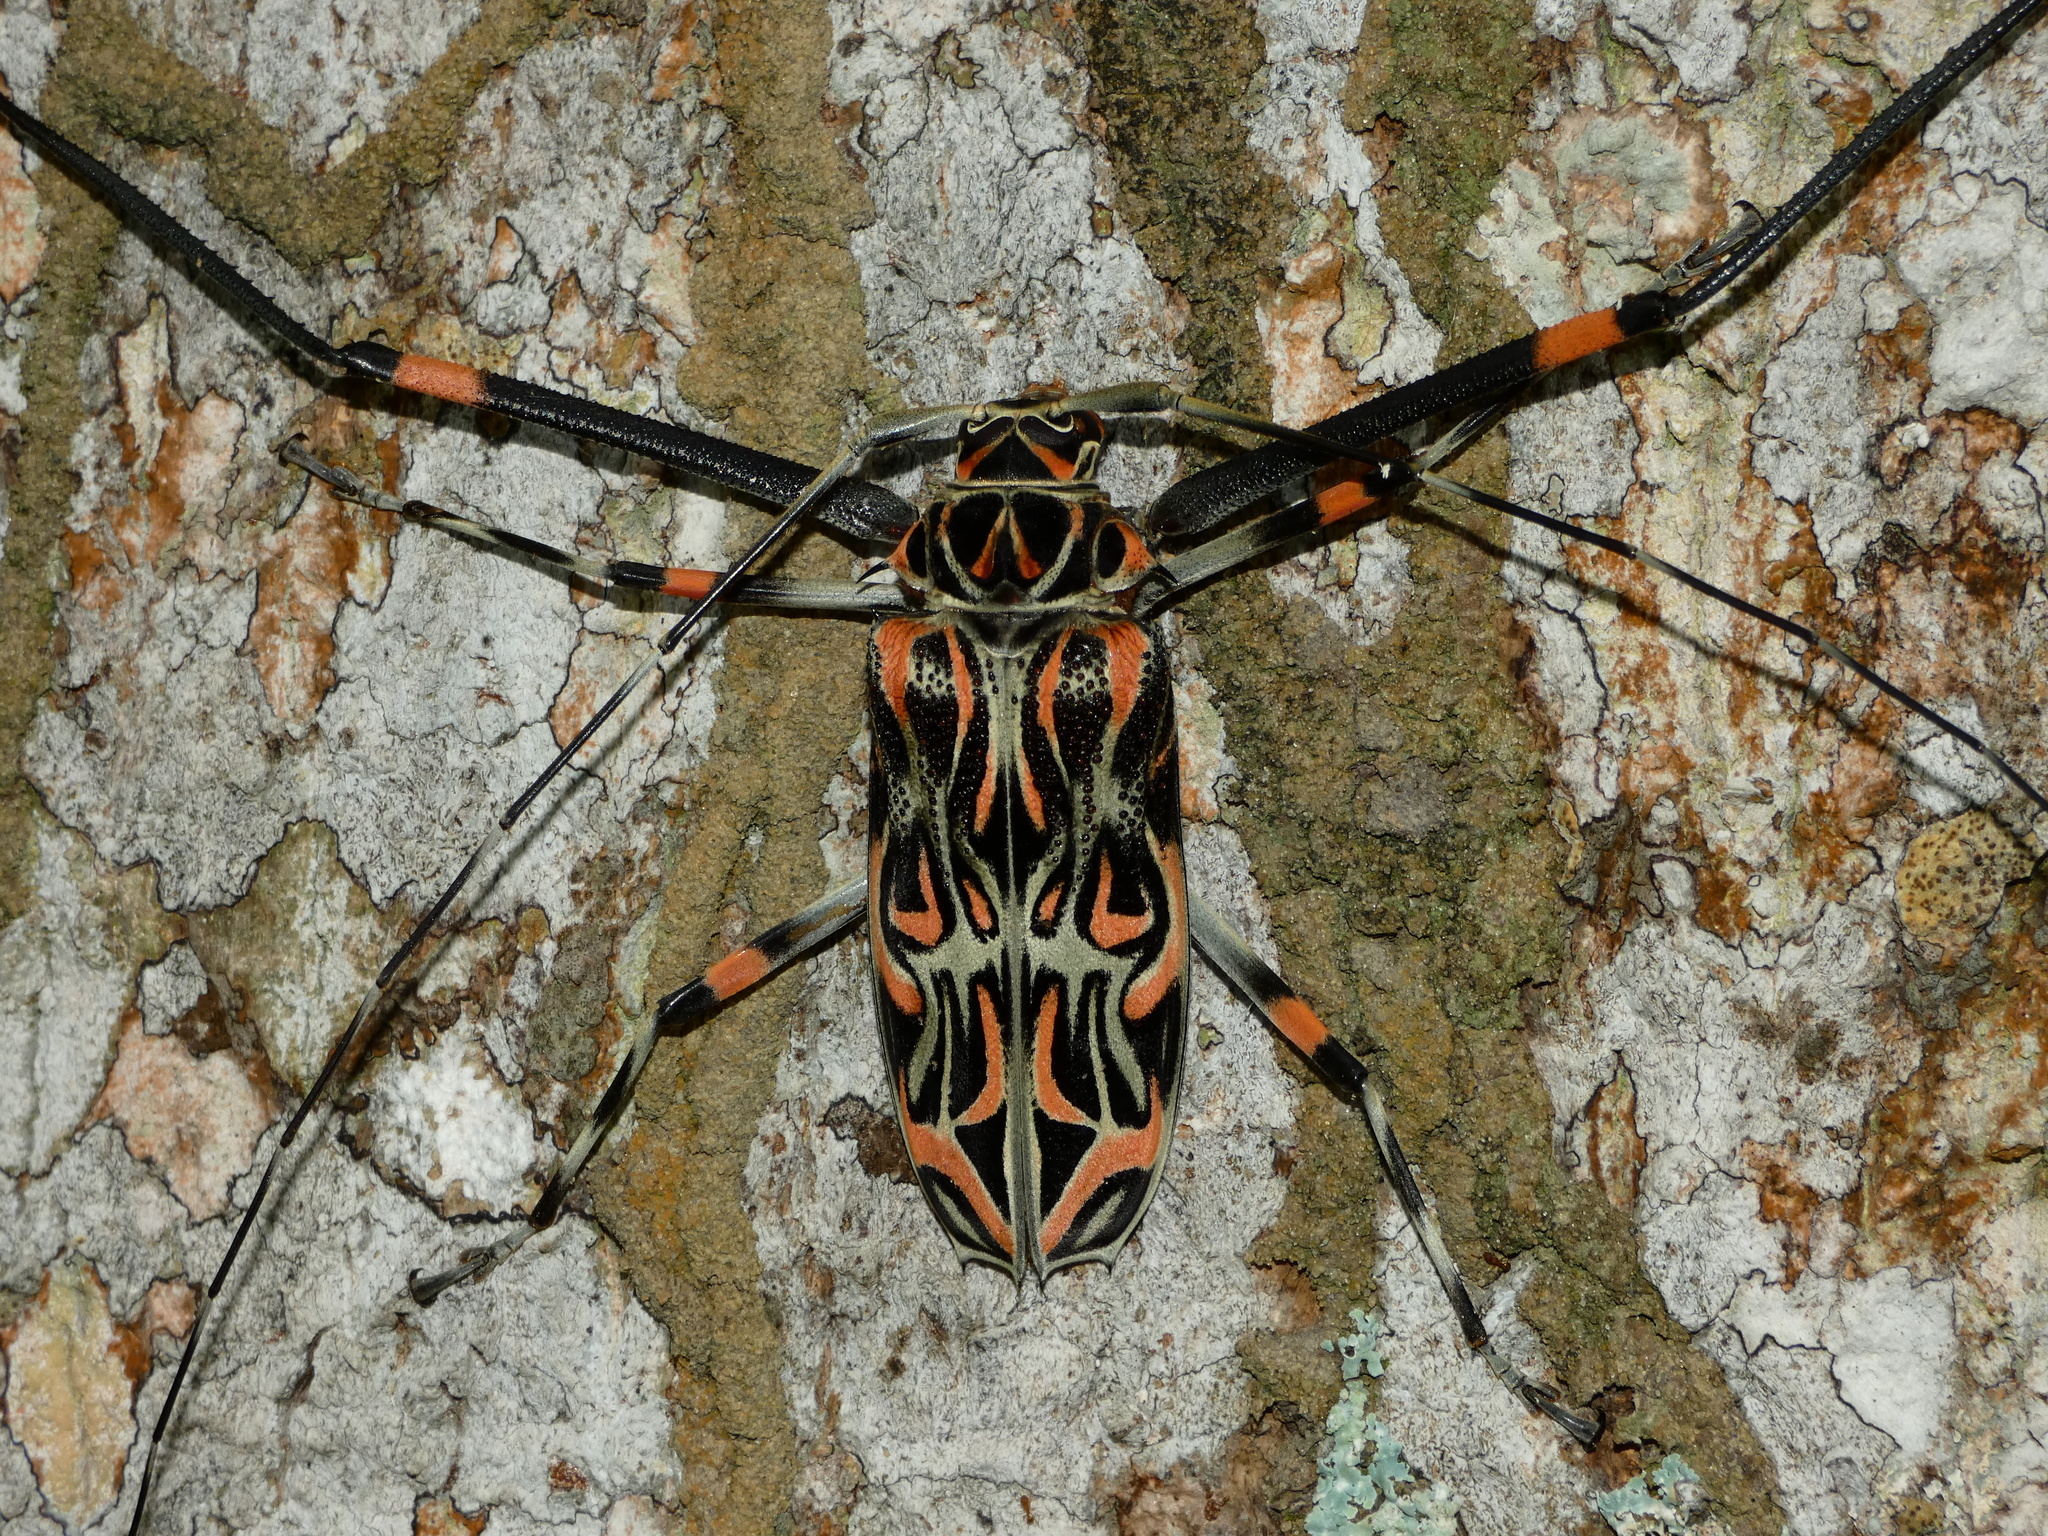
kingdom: Animalia
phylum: Arthropoda
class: Insecta
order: Coleoptera
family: Cerambycidae
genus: Acrocinus
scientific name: Acrocinus longimanus
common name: Arlequin
